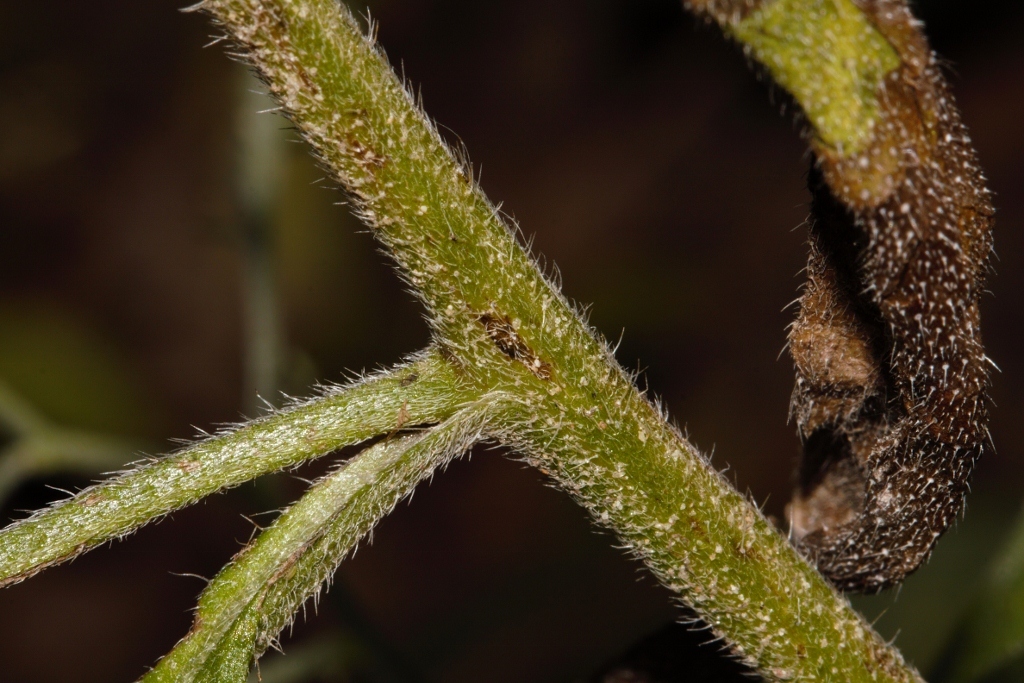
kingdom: Plantae
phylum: Tracheophyta
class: Magnoliopsida
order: Boraginales
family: Boraginaceae
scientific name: Boraginaceae
